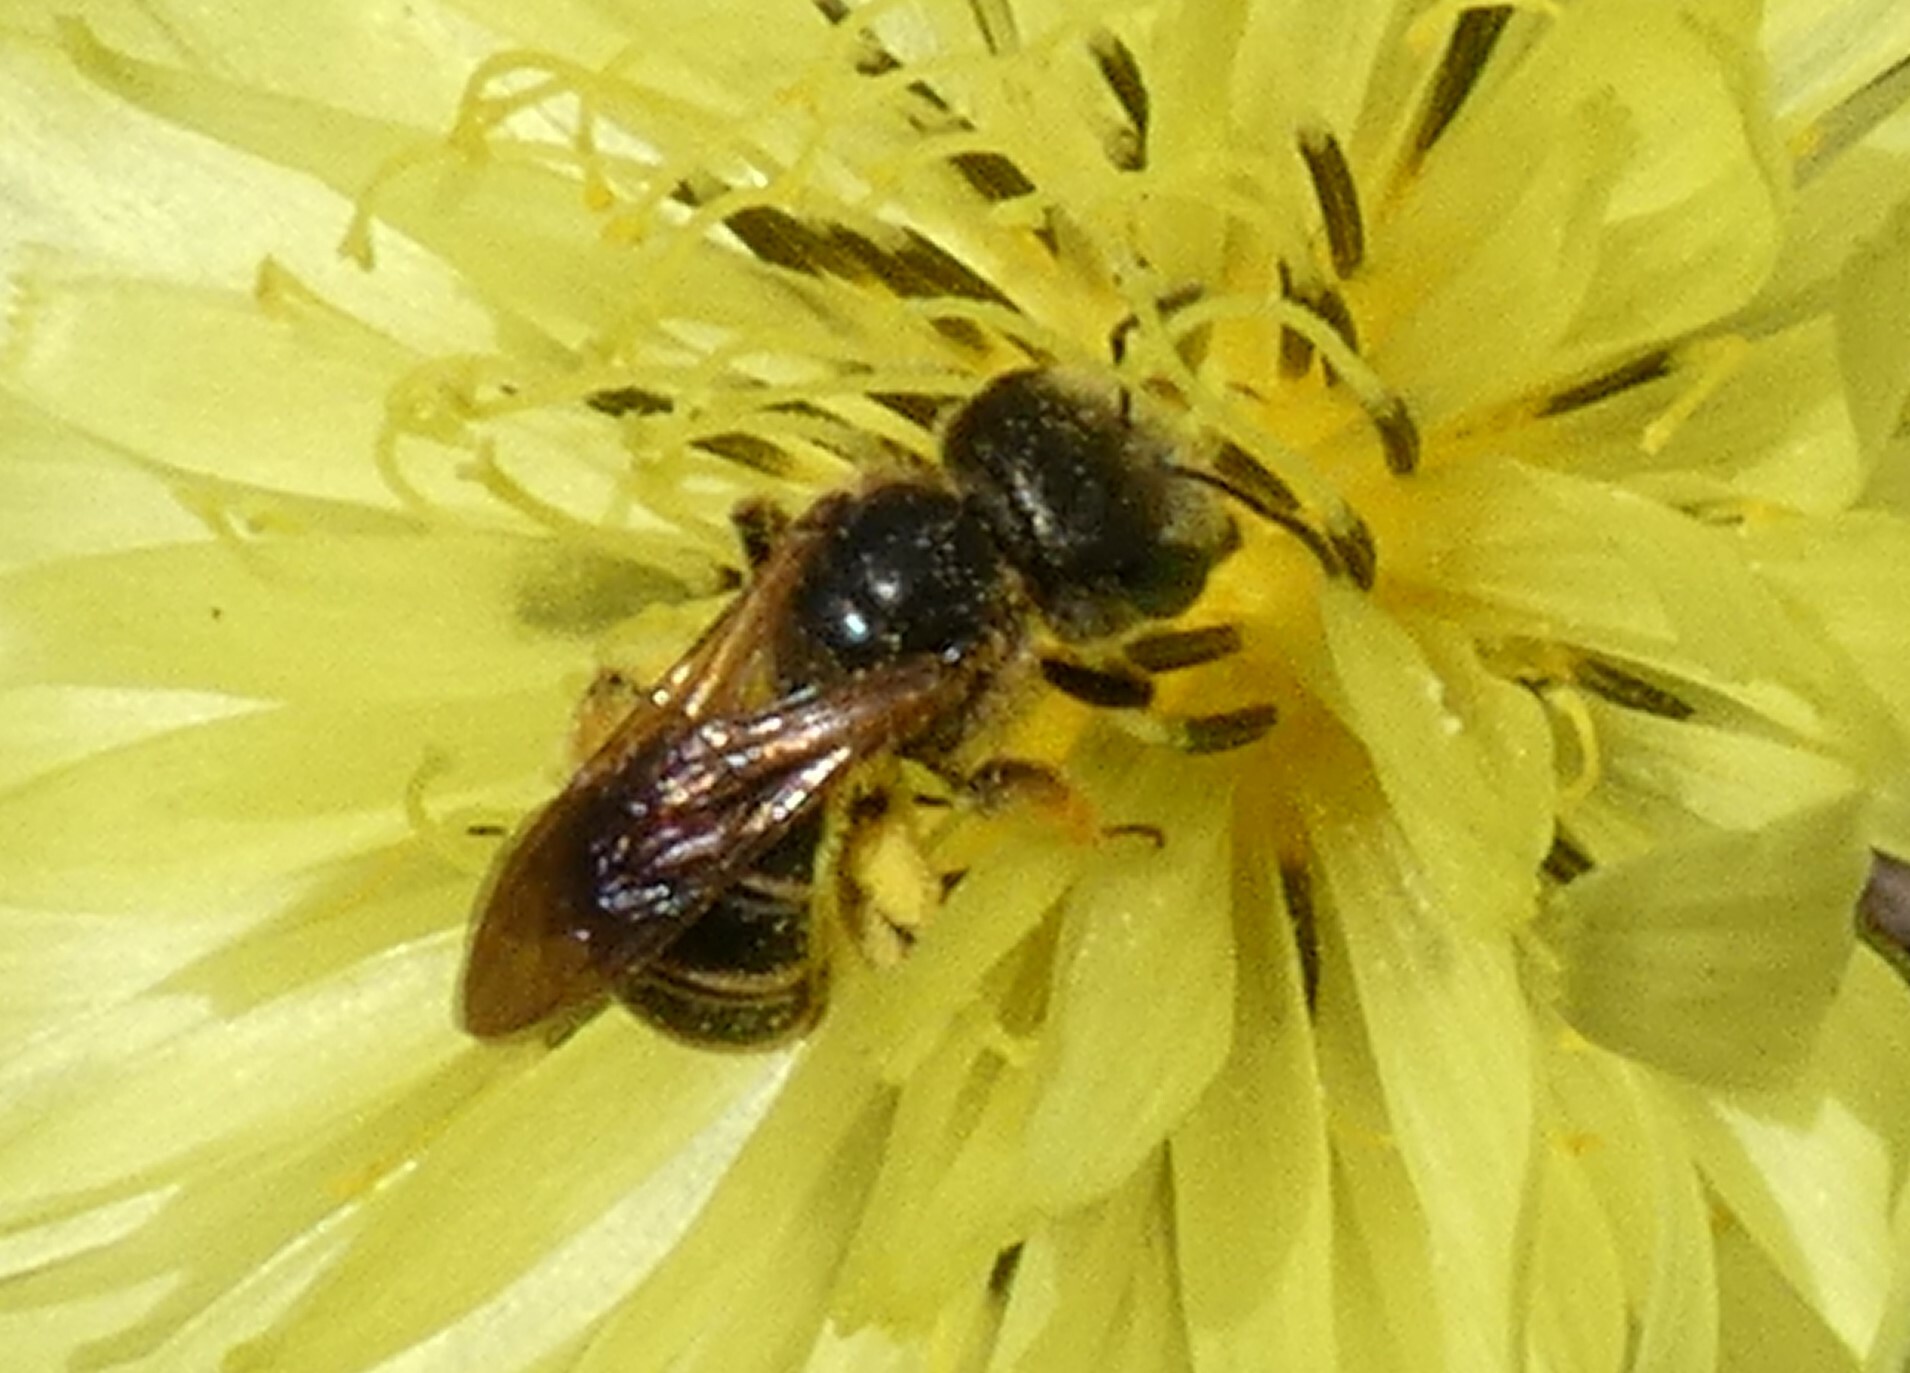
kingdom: Animalia
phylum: Arthropoda
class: Insecta
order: Hymenoptera
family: Halictidae
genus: Halictus
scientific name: Halictus poeyi
